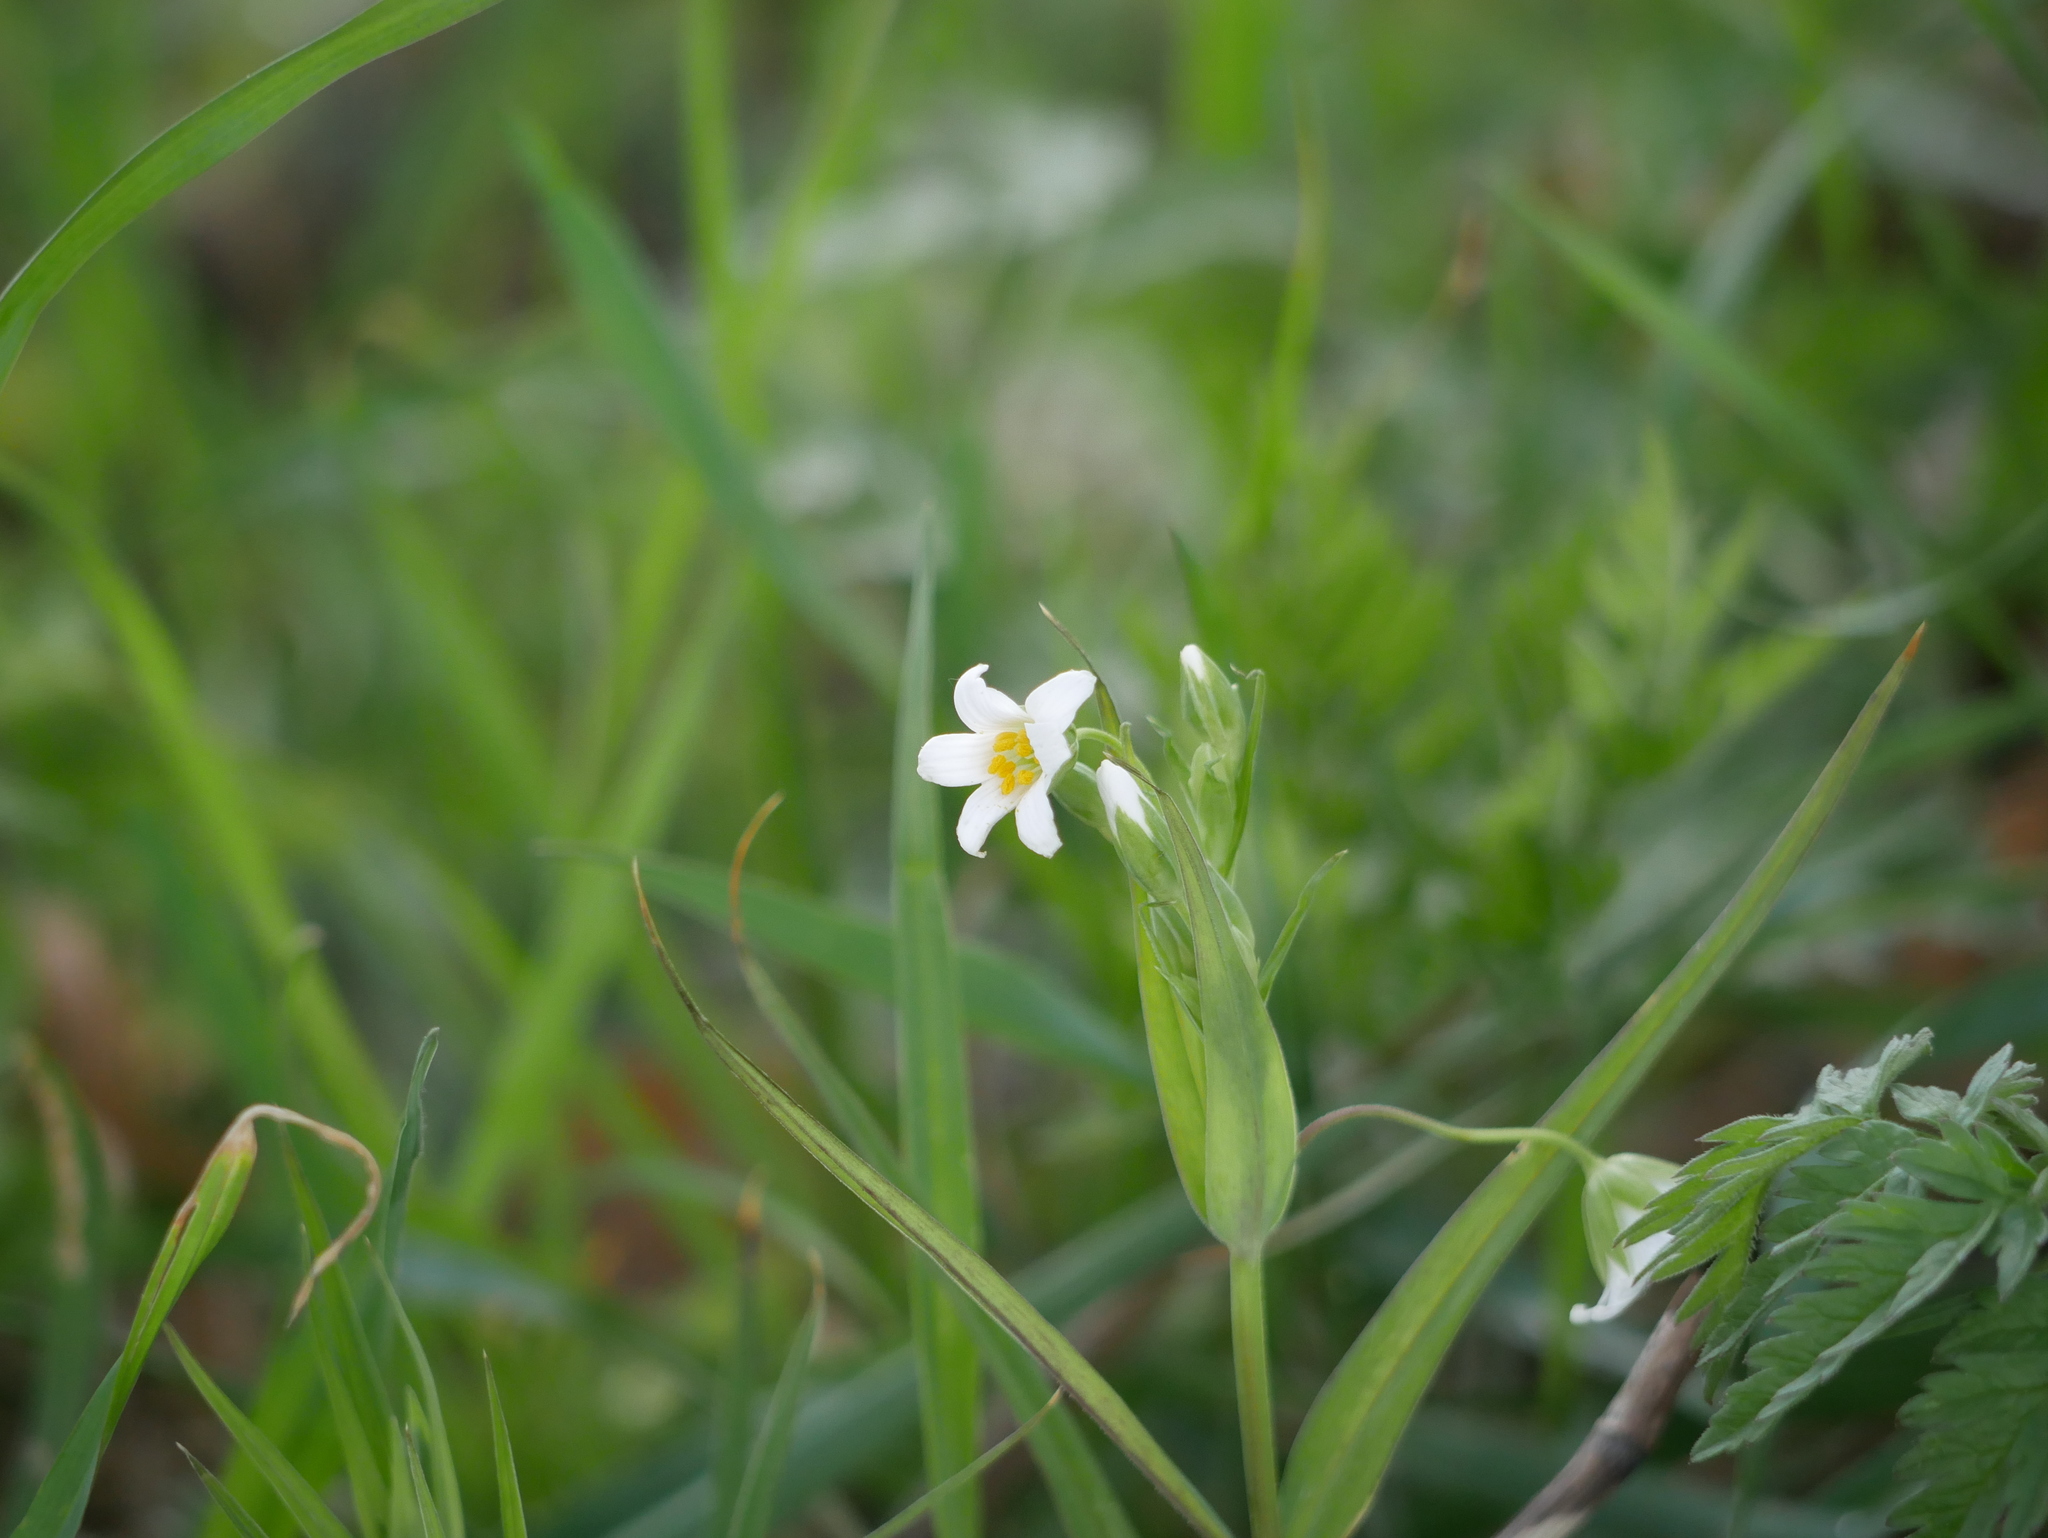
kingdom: Plantae
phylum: Tracheophyta
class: Magnoliopsida
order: Caryophyllales
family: Caryophyllaceae
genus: Rabelera
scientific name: Rabelera holostea
